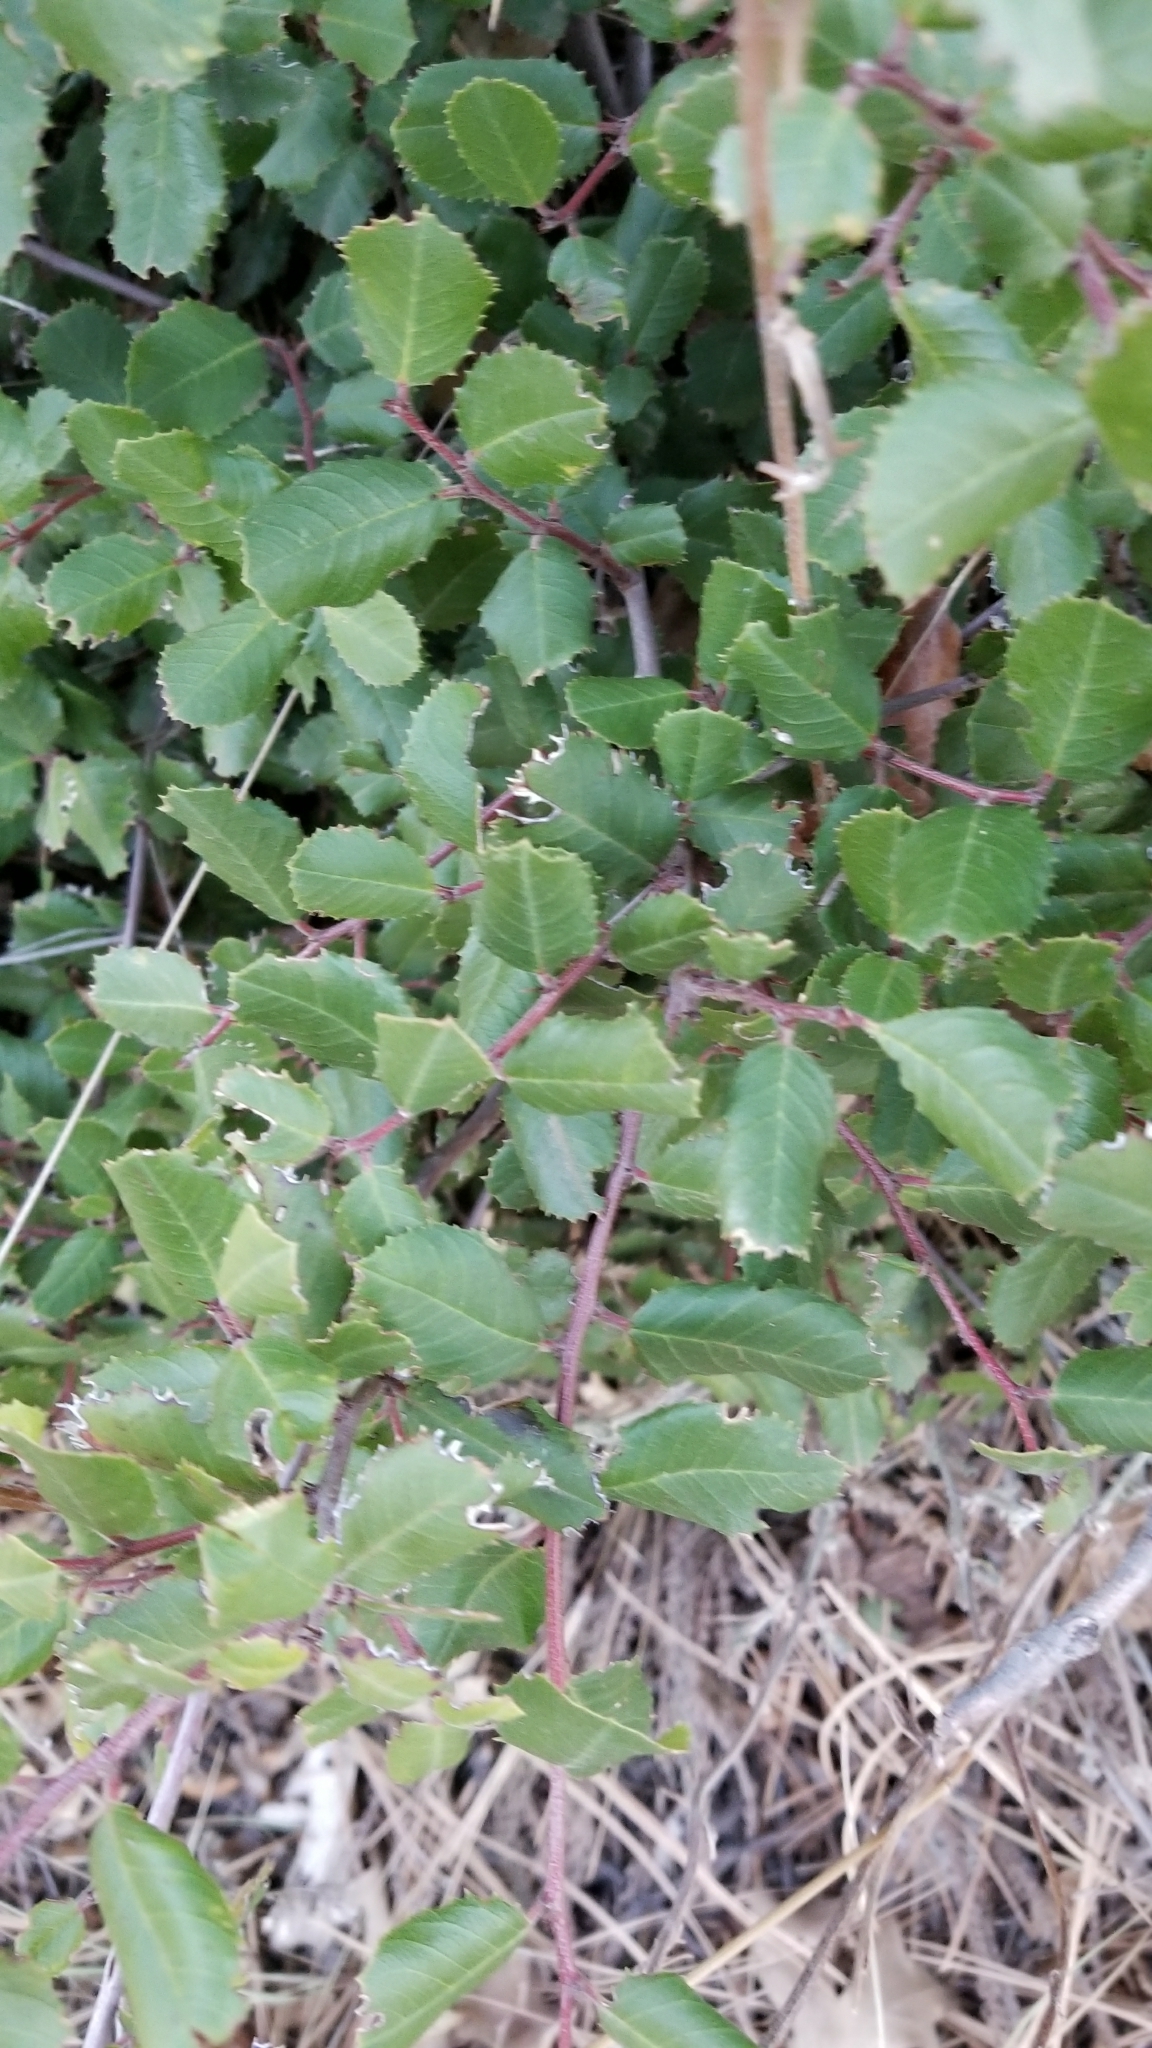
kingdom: Plantae
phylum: Tracheophyta
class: Magnoliopsida
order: Rosales
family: Rhamnaceae
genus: Endotropis
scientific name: Endotropis crocea
